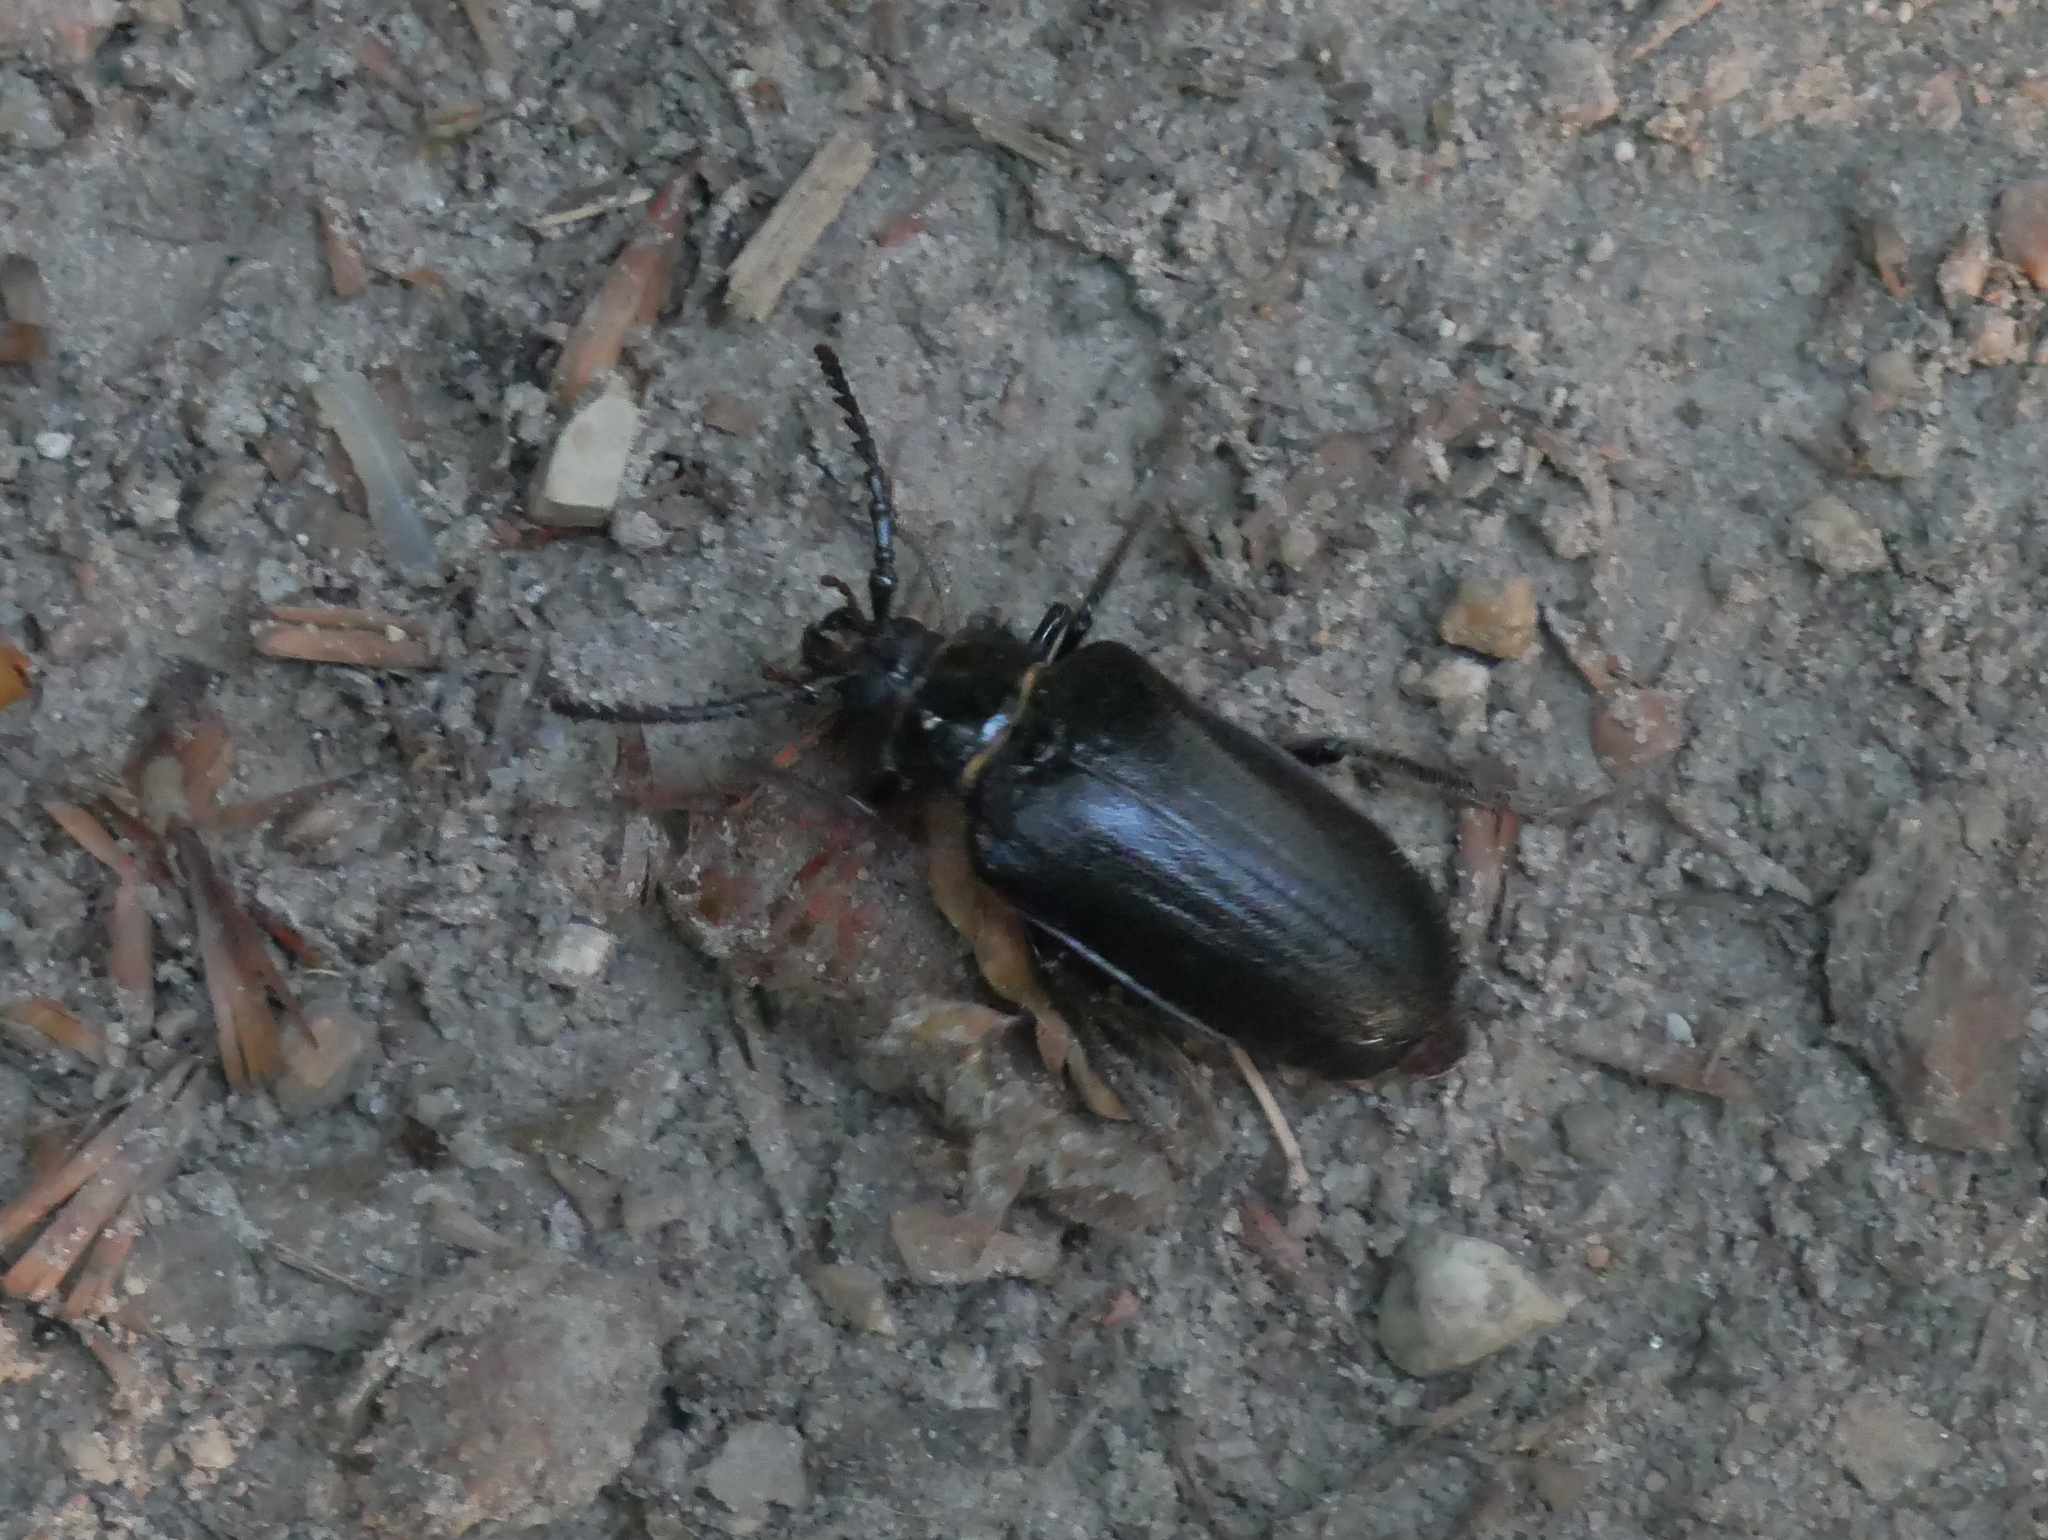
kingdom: Animalia
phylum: Arthropoda
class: Insecta
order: Coleoptera
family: Cerambycidae
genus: Prionus
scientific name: Prionus coriarius
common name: Tanner beetle
